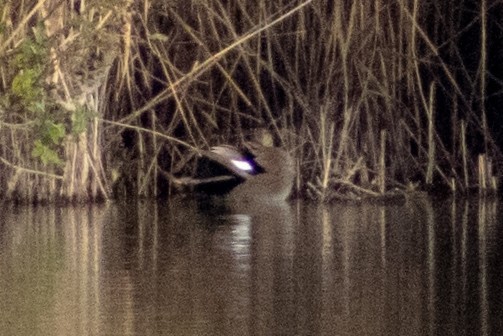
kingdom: Animalia
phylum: Chordata
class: Aves
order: Anseriformes
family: Anatidae
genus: Mareca
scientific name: Mareca strepera
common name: Gadwall
